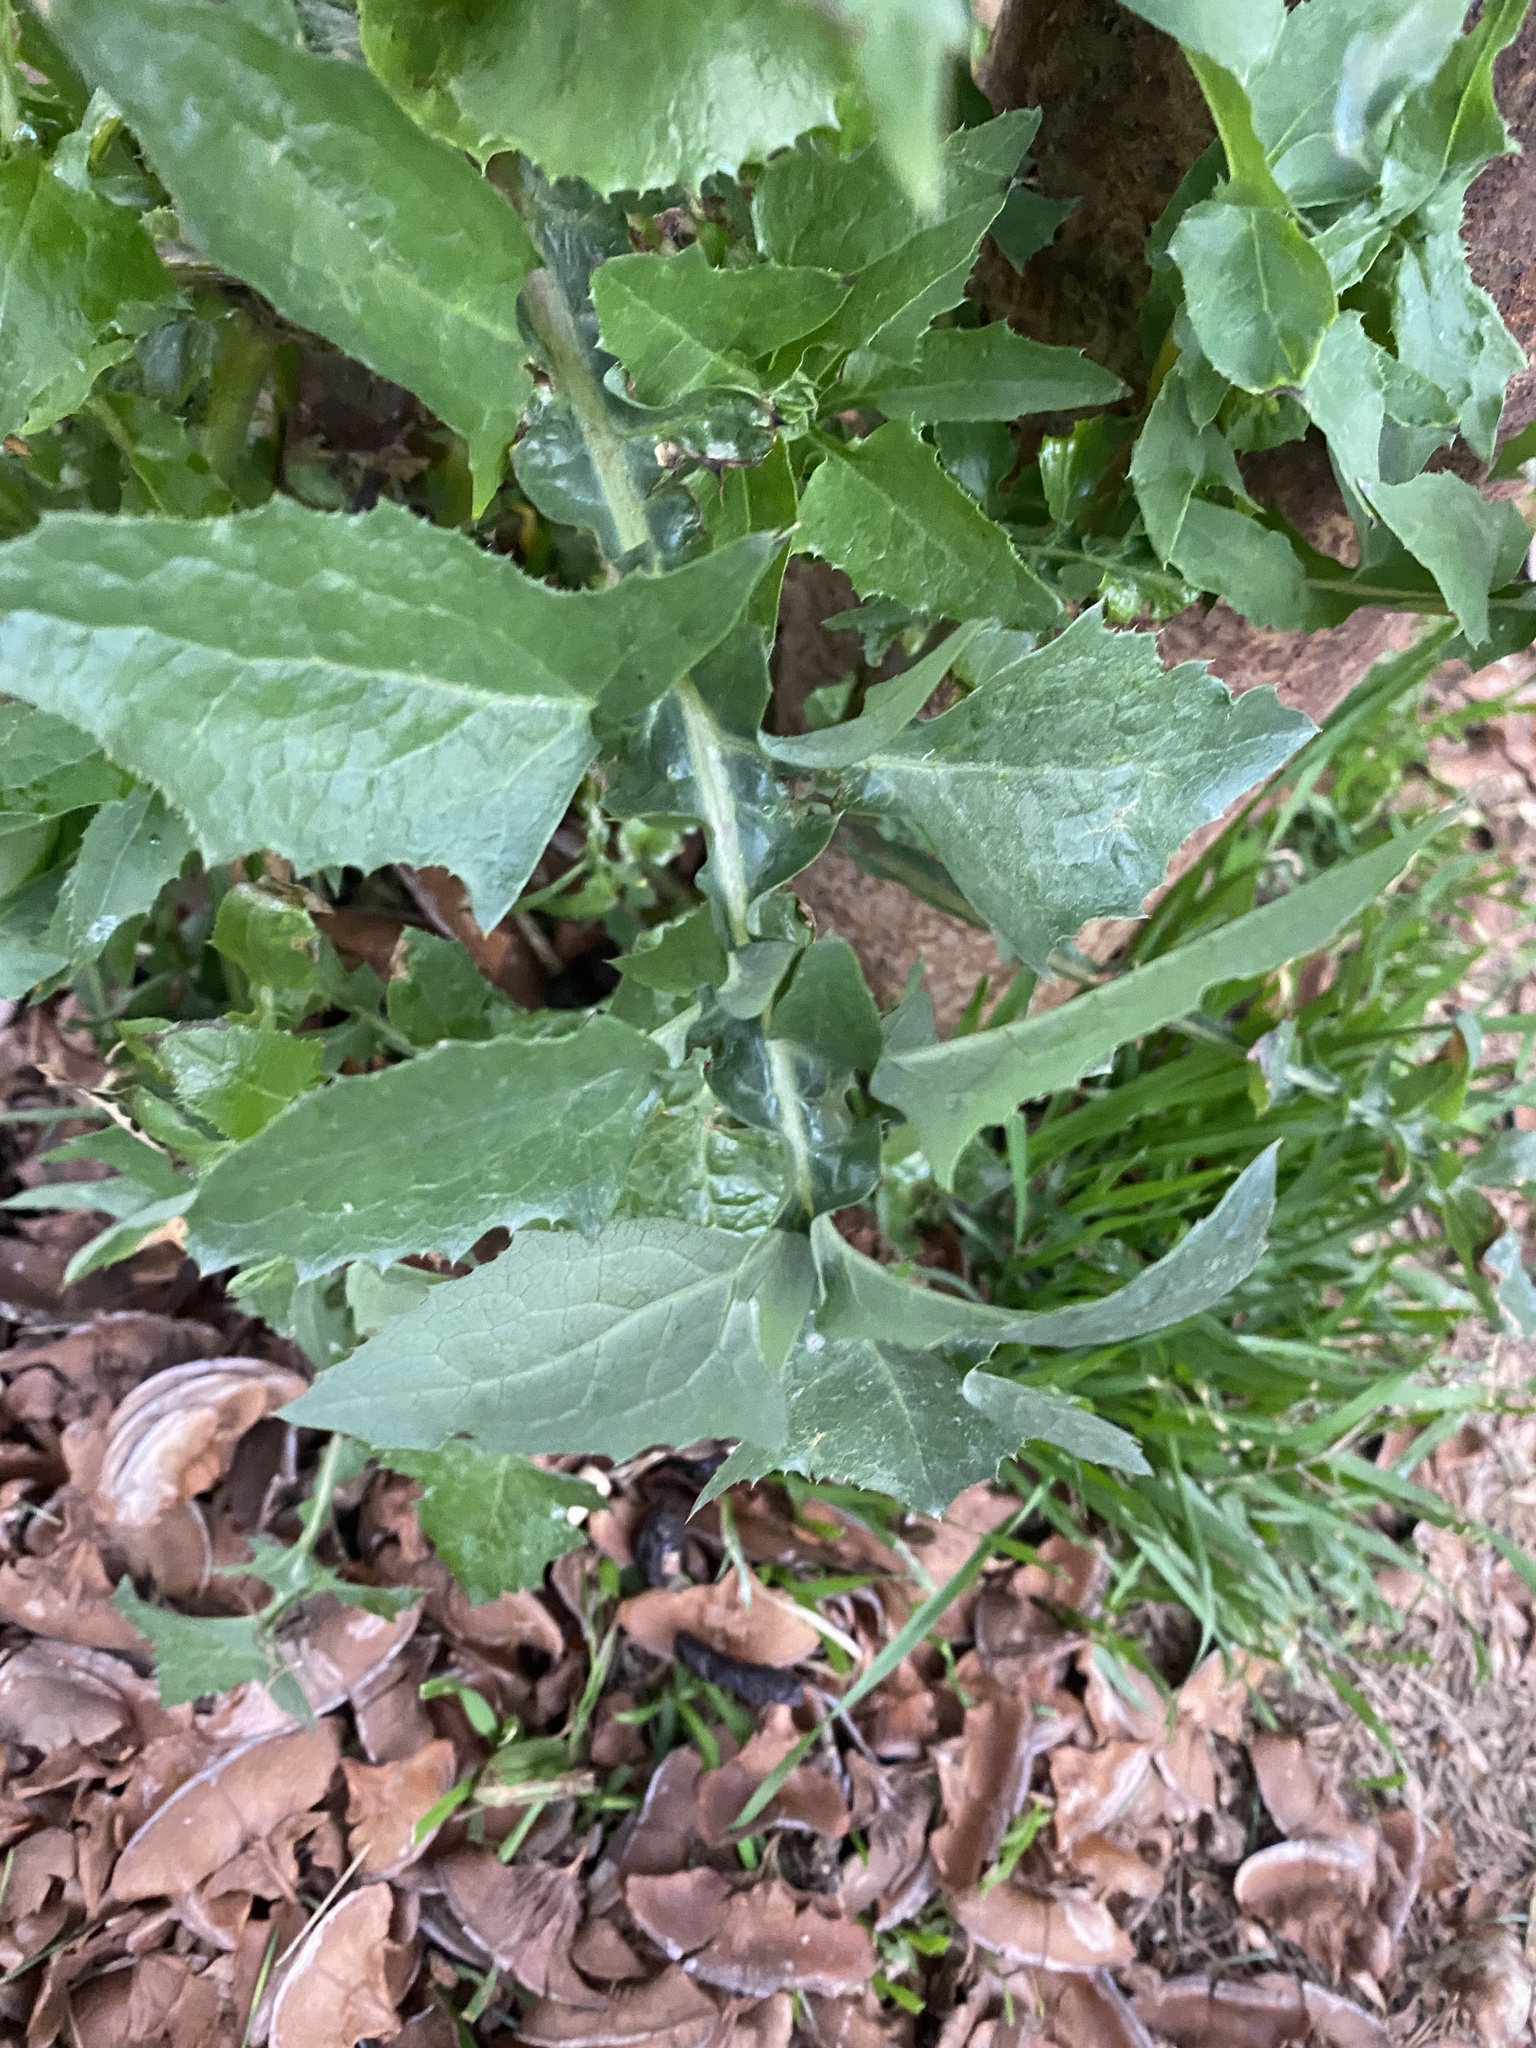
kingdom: Plantae
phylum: Tracheophyta
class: Magnoliopsida
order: Asterales
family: Asteraceae
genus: Sonchus
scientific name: Sonchus oleraceus
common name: Common sowthistle
